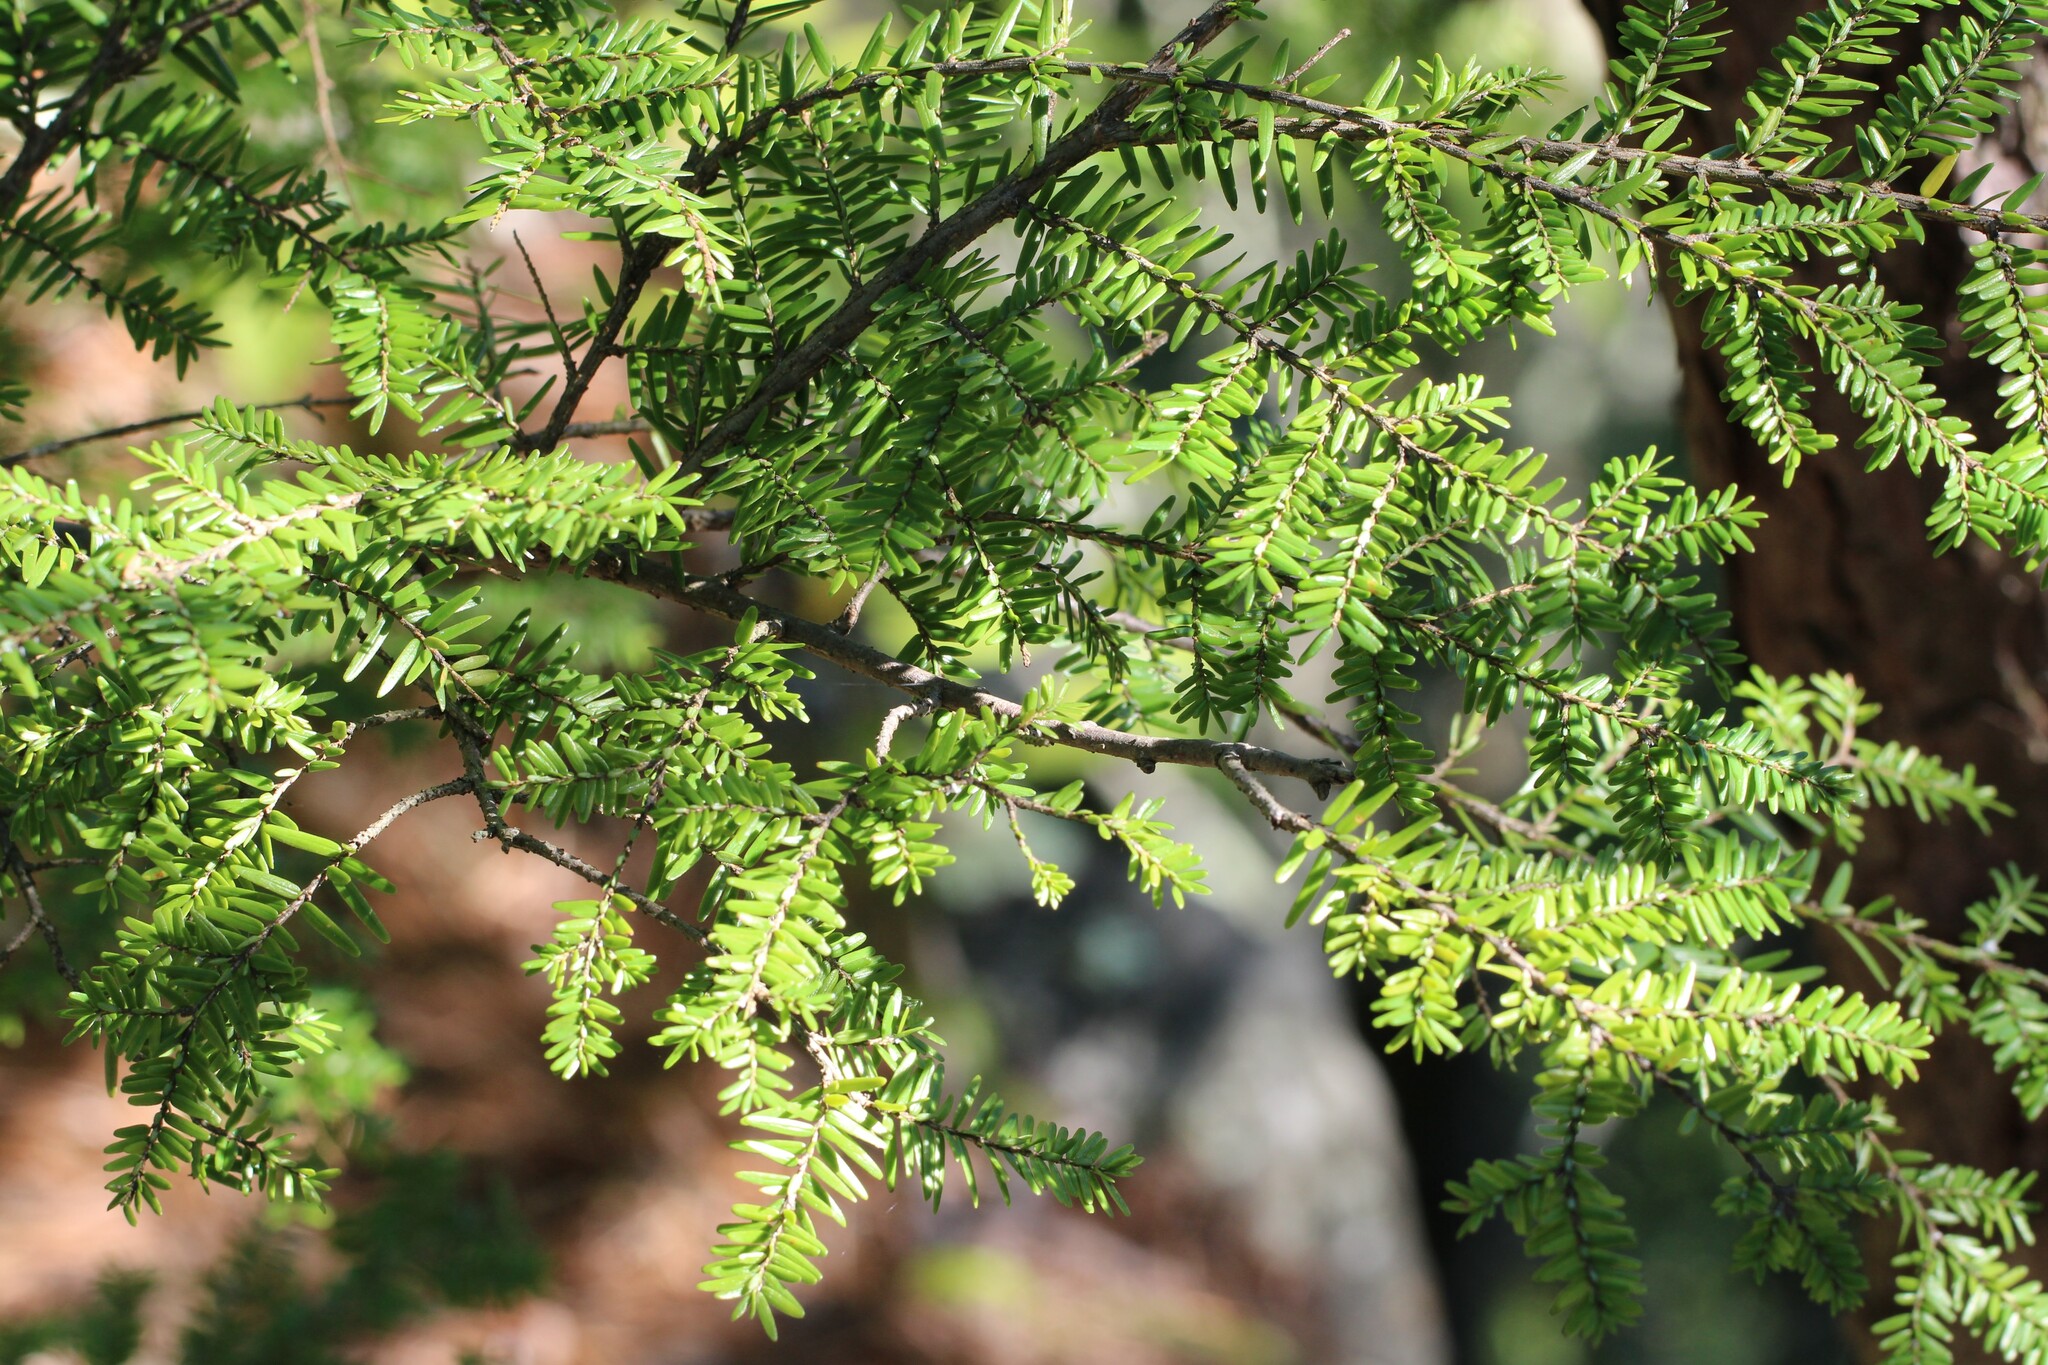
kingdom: Plantae
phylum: Tracheophyta
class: Pinopsida
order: Pinales
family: Pinaceae
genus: Tsuga
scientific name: Tsuga canadensis
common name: Eastern hemlock
